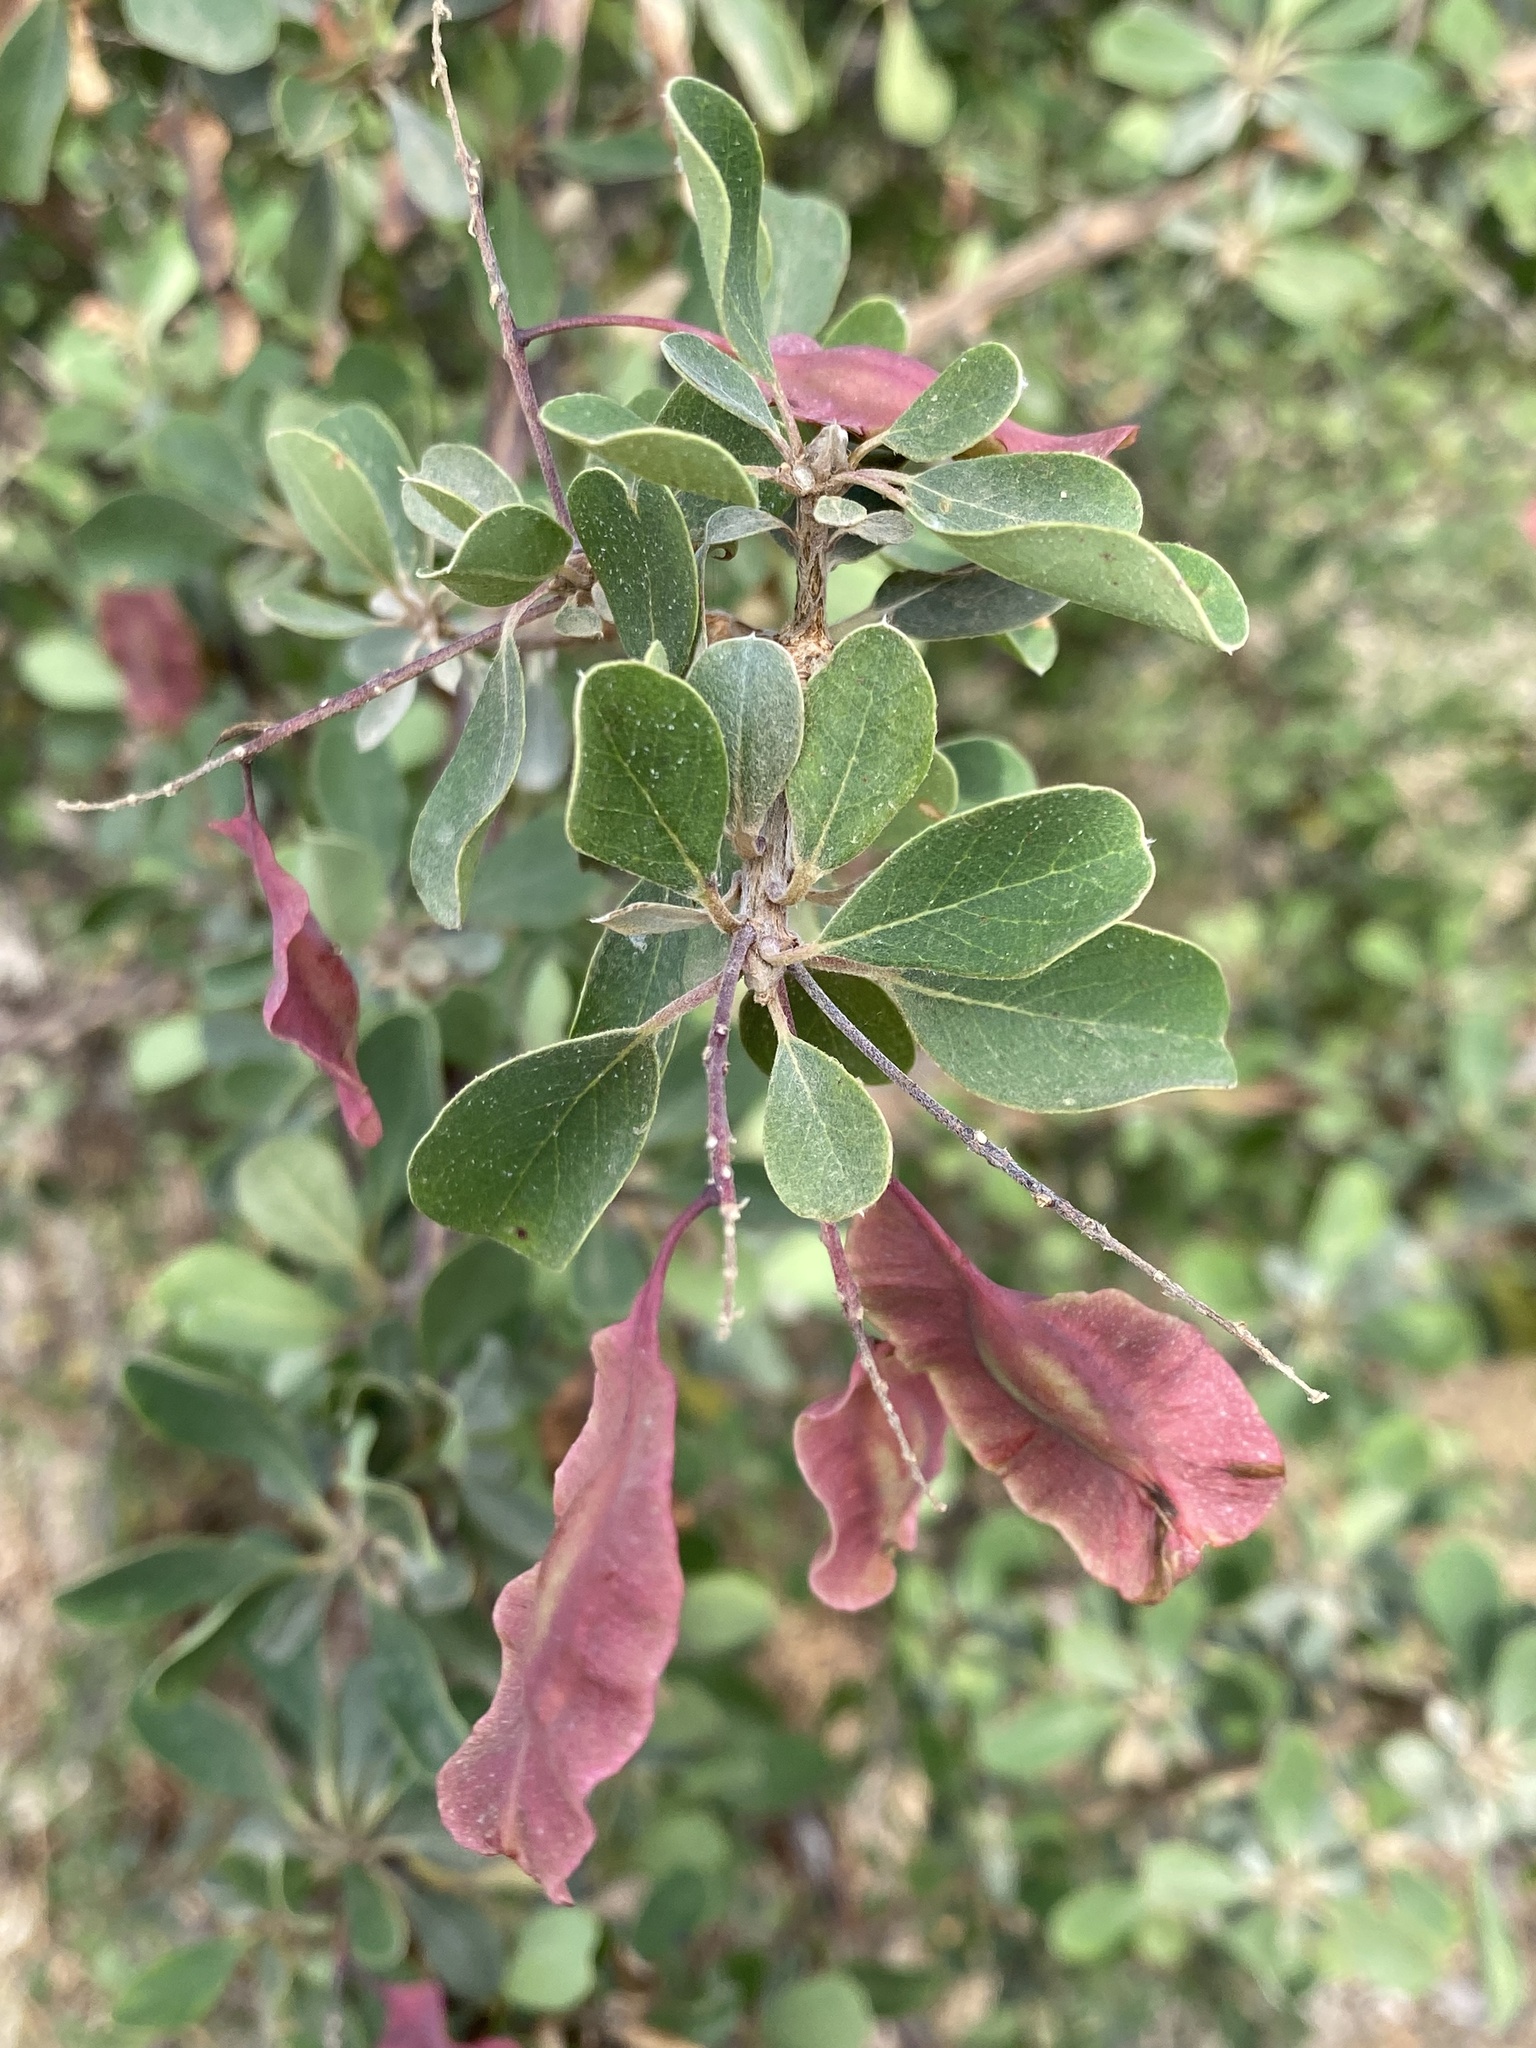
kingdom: Plantae
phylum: Tracheophyta
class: Magnoliopsida
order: Myrtales
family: Combretaceae
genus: Terminalia
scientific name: Terminalia prunioides
